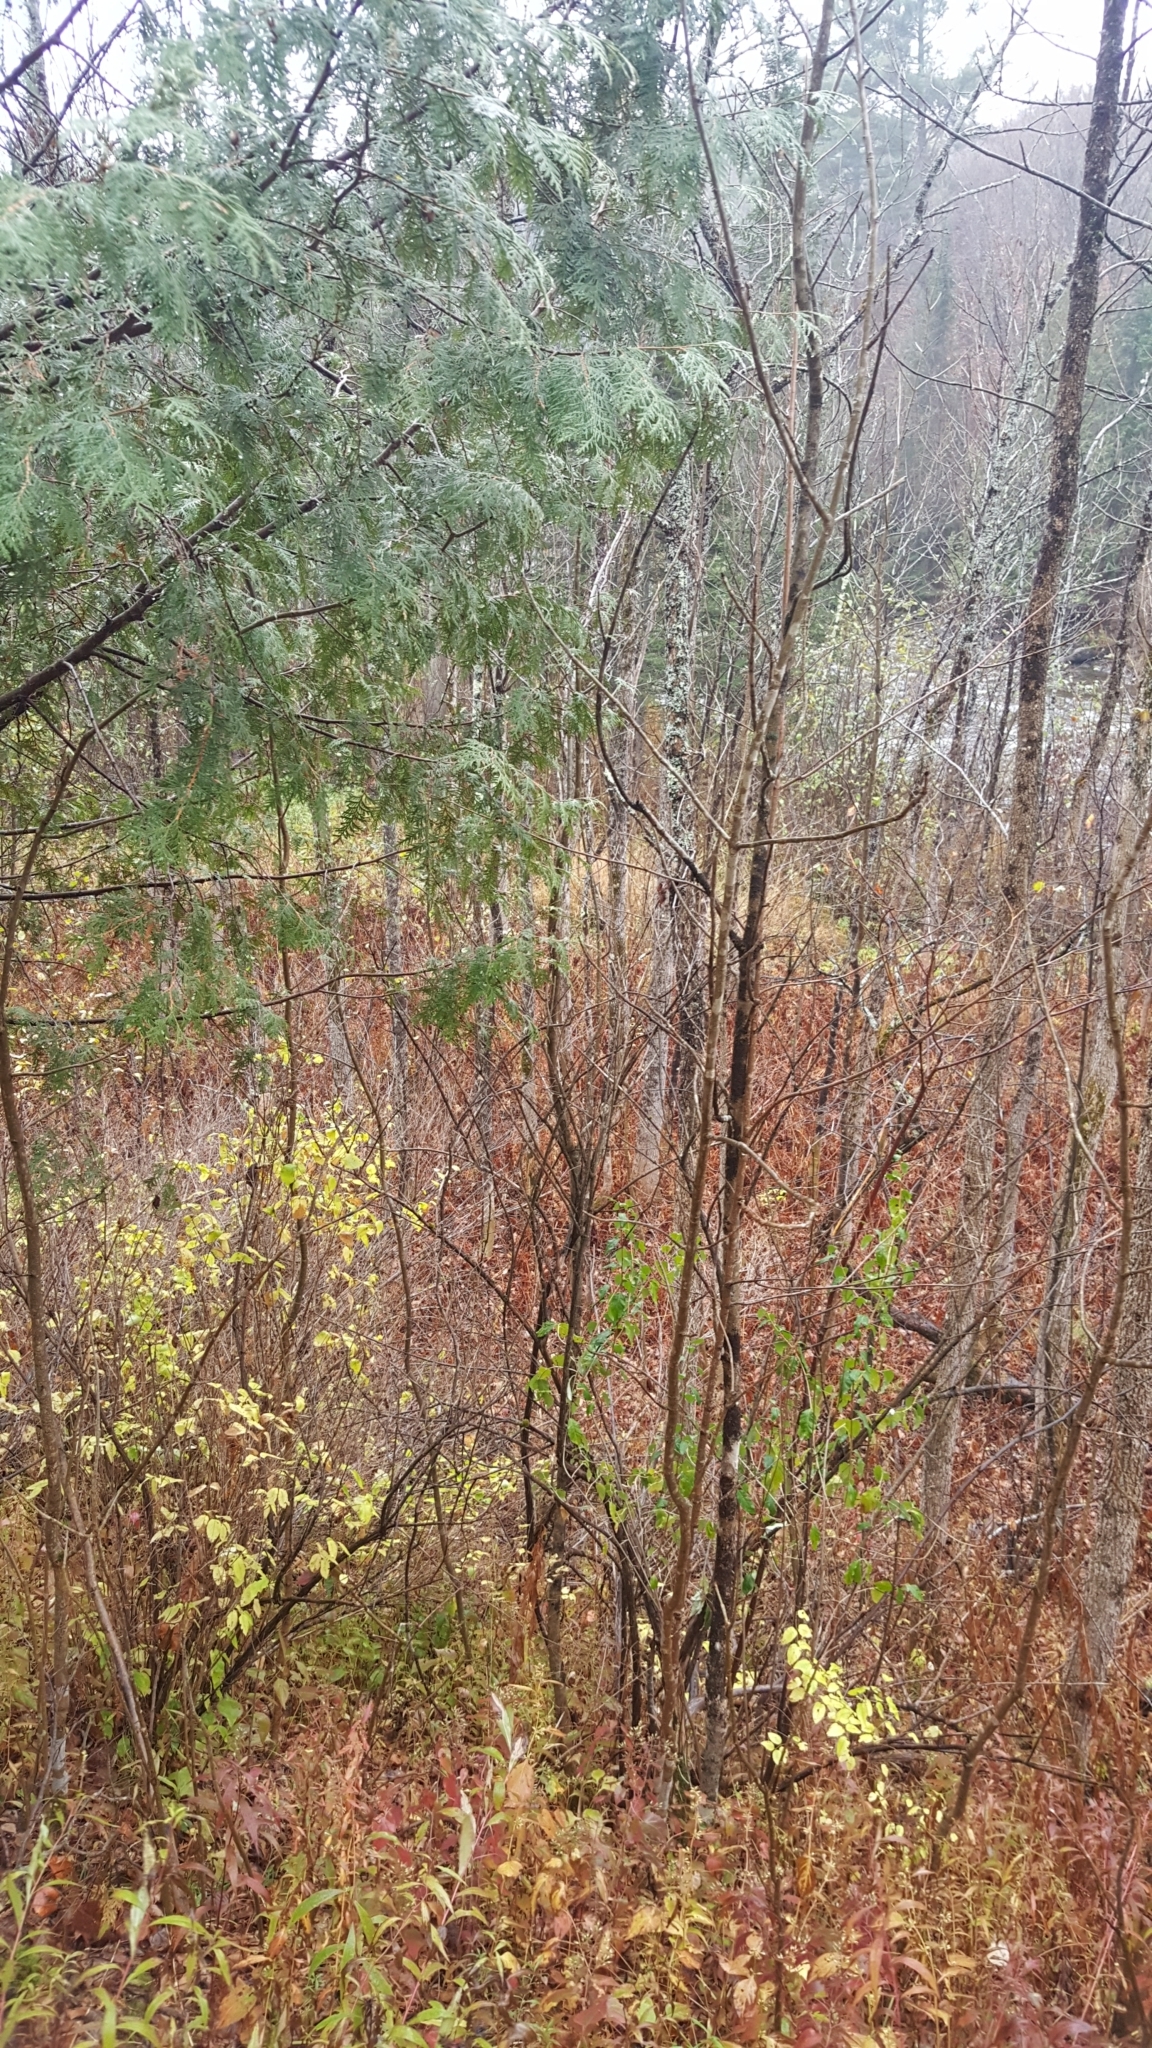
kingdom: Plantae
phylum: Tracheophyta
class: Pinopsida
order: Pinales
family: Cupressaceae
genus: Thuja
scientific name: Thuja occidentalis
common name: Northern white-cedar
